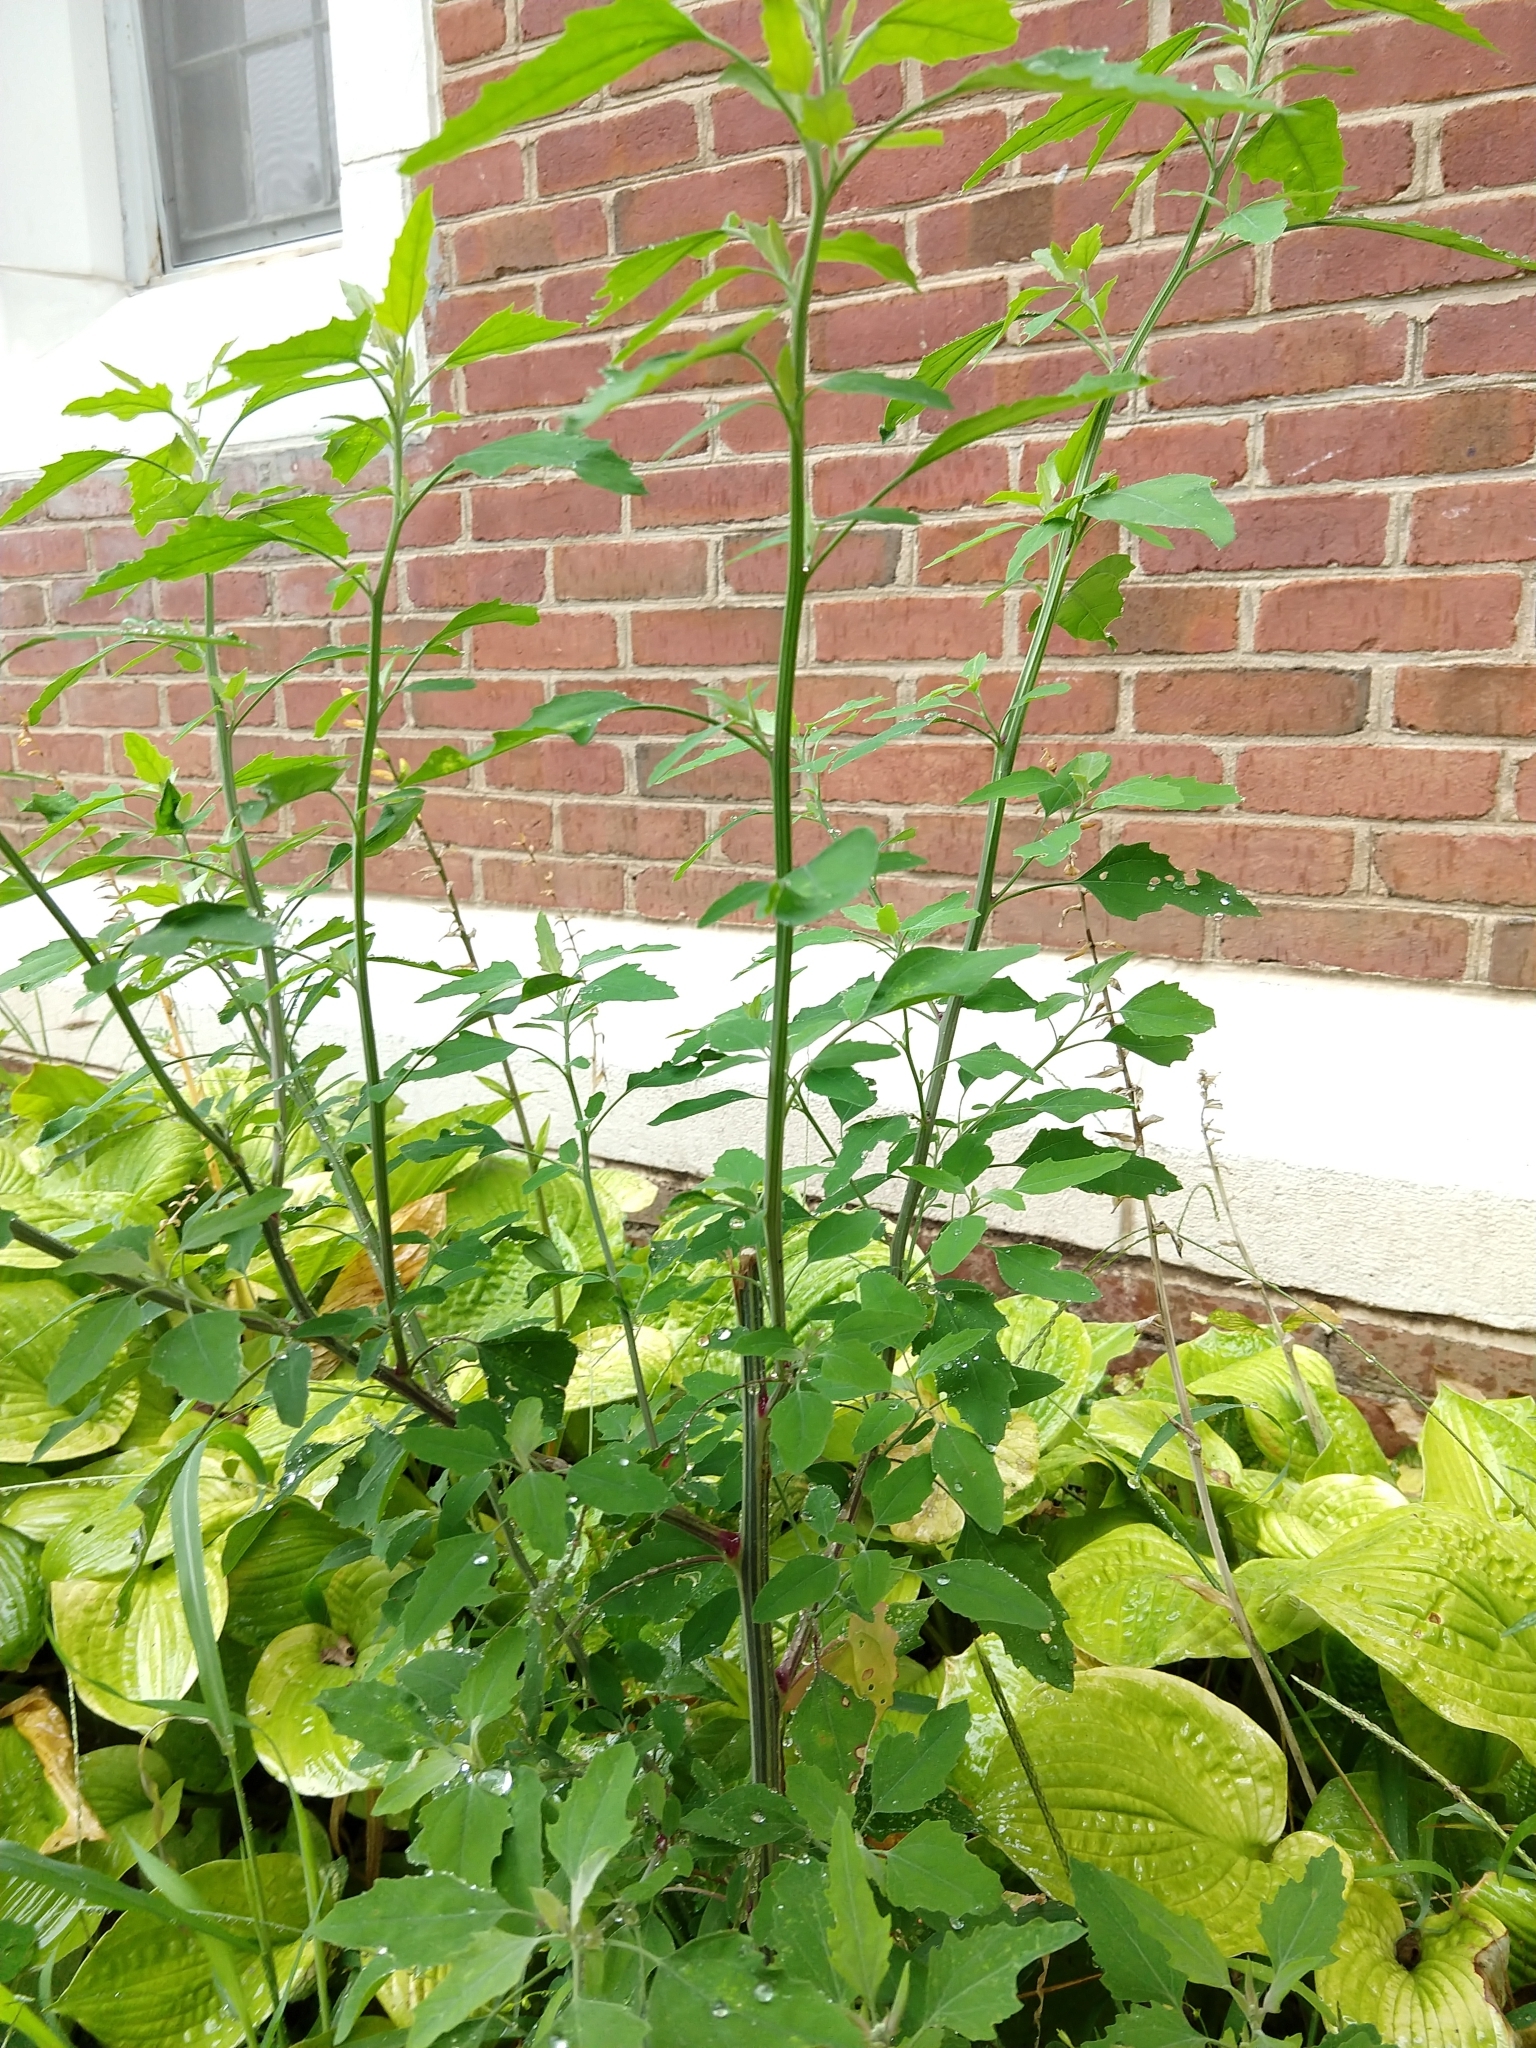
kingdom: Plantae
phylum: Tracheophyta
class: Magnoliopsida
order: Caryophyllales
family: Amaranthaceae
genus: Chenopodium
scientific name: Chenopodium album
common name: Fat-hen
